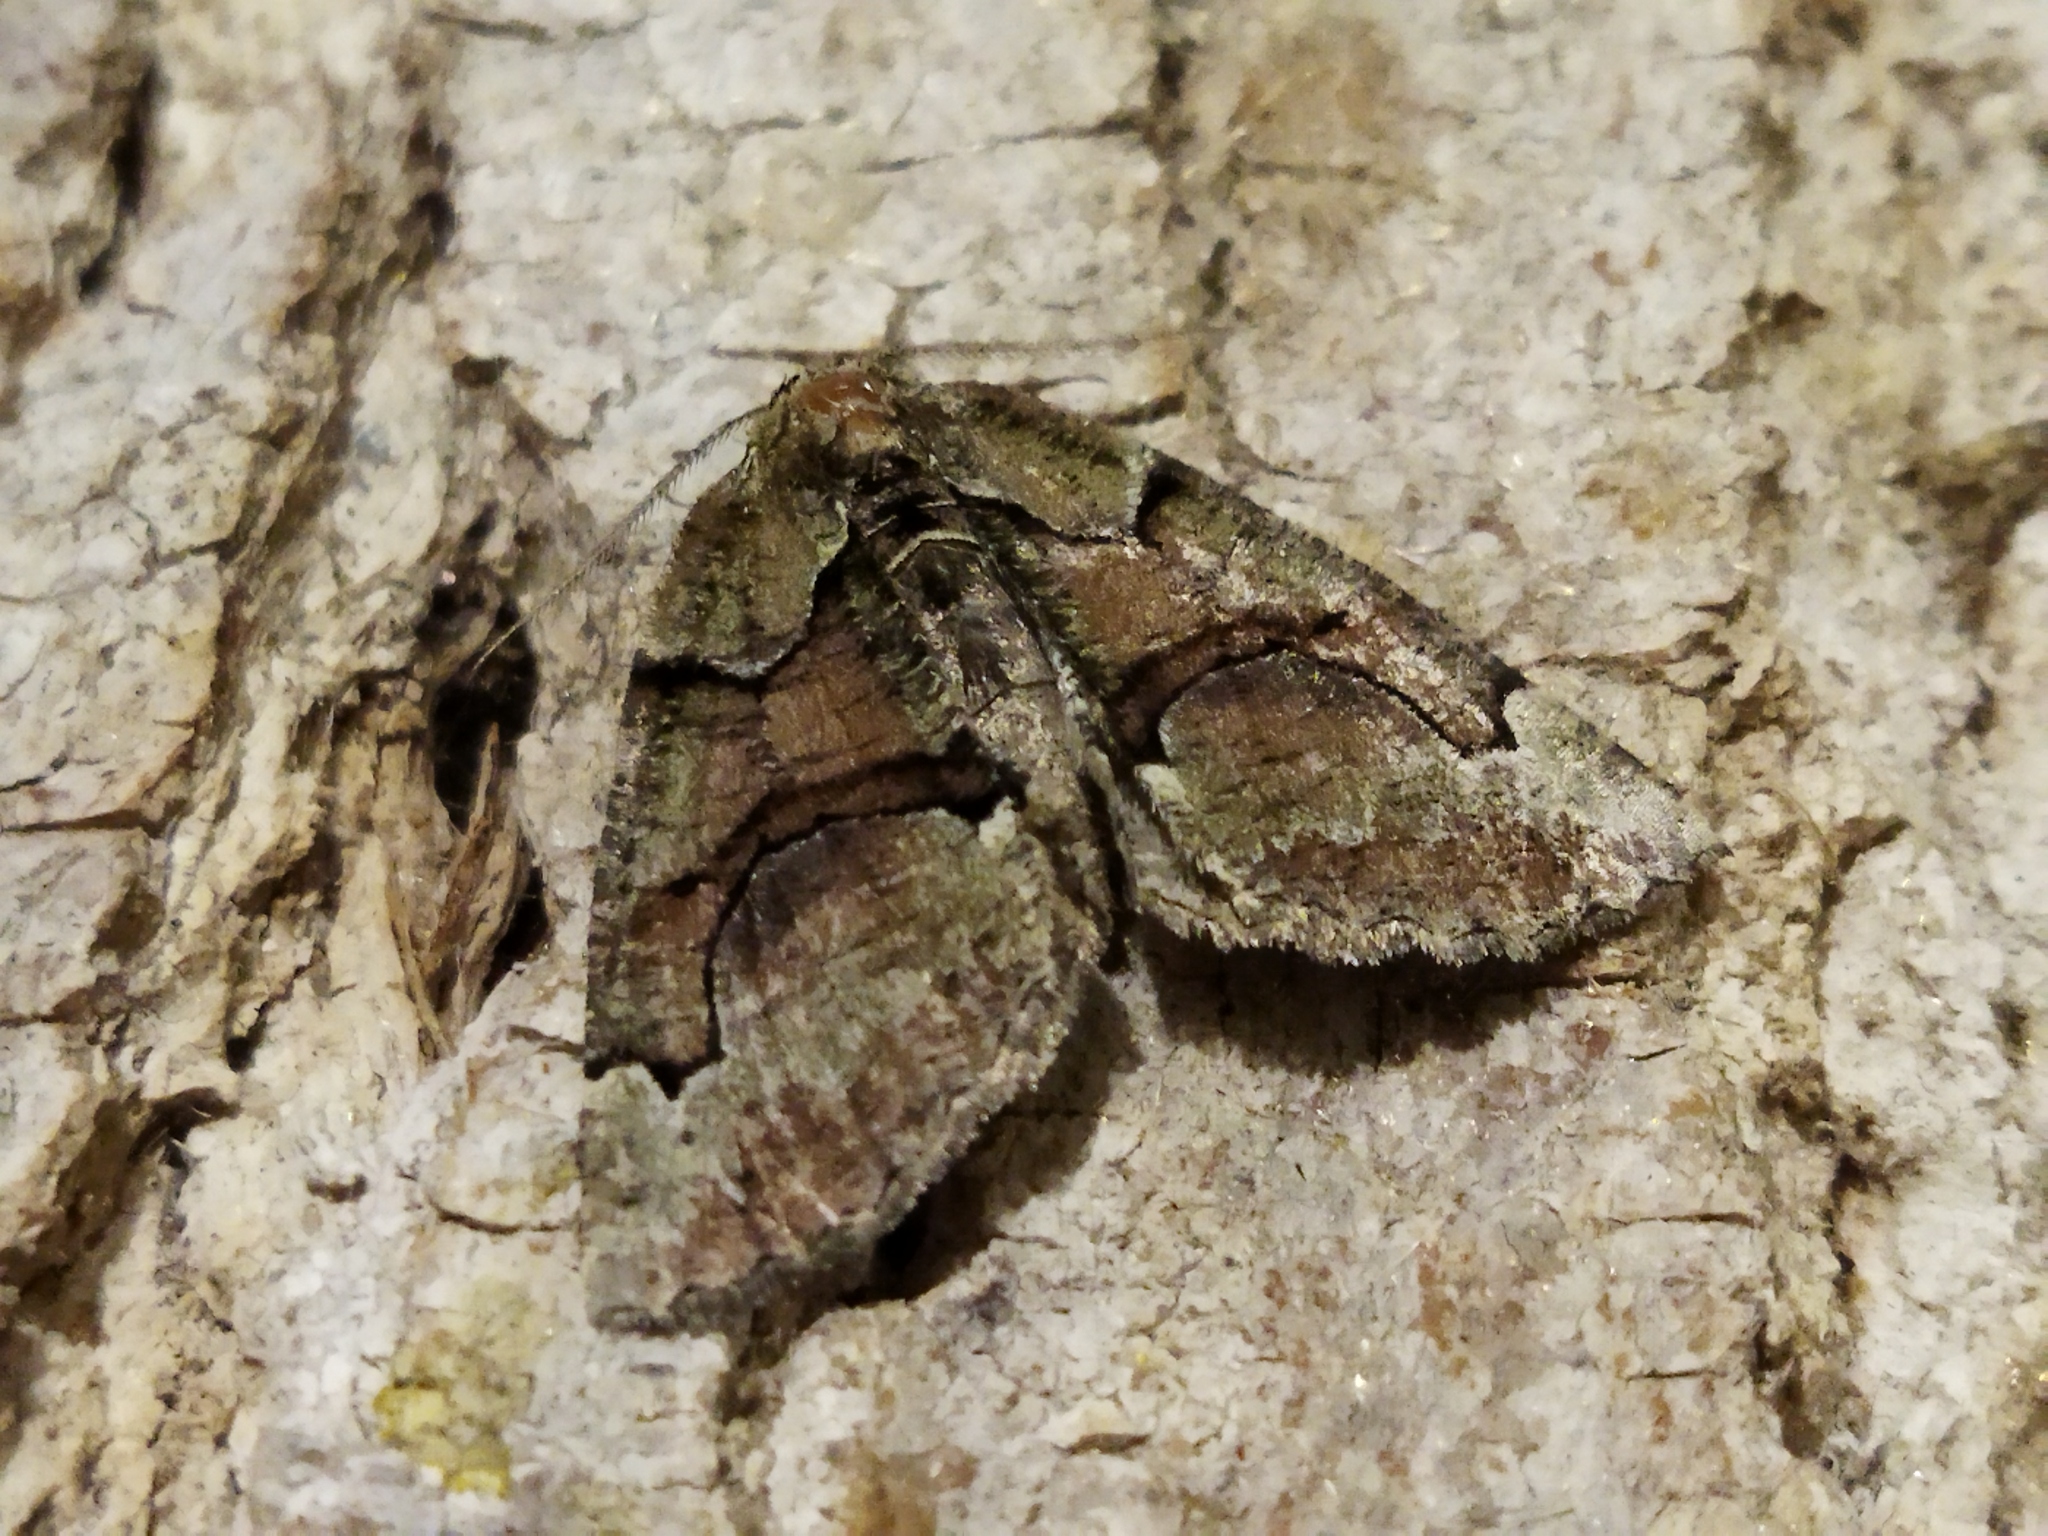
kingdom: Animalia
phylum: Arthropoda
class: Insecta
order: Lepidoptera
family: Geometridae
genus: Asovia
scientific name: Asovia maeoticaria
